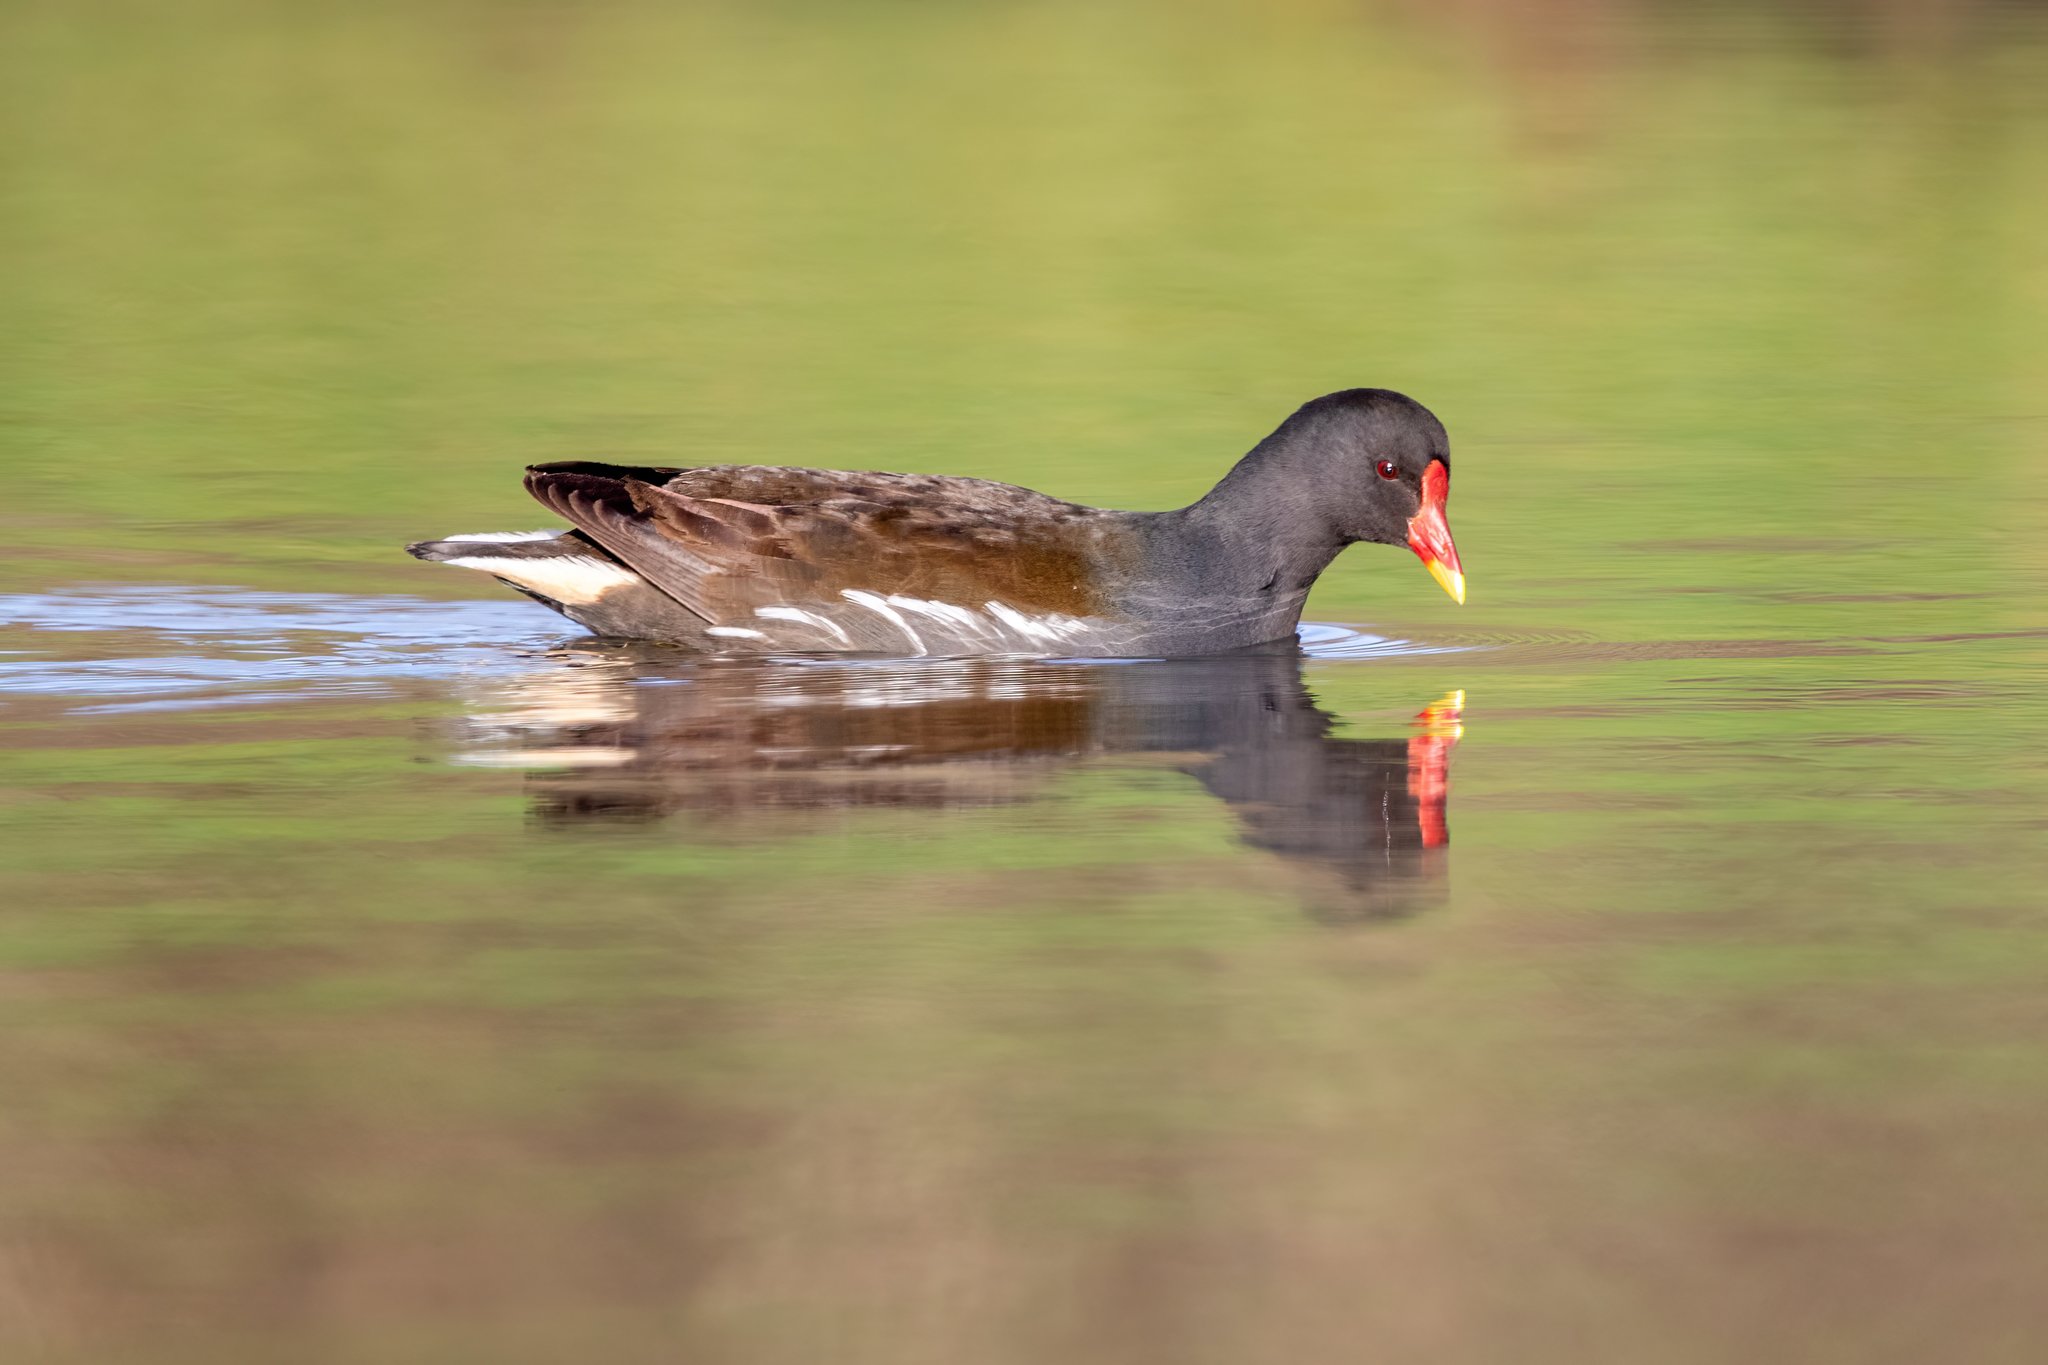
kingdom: Animalia
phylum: Chordata
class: Aves
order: Gruiformes
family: Rallidae
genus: Gallinula
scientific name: Gallinula chloropus
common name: Common moorhen
